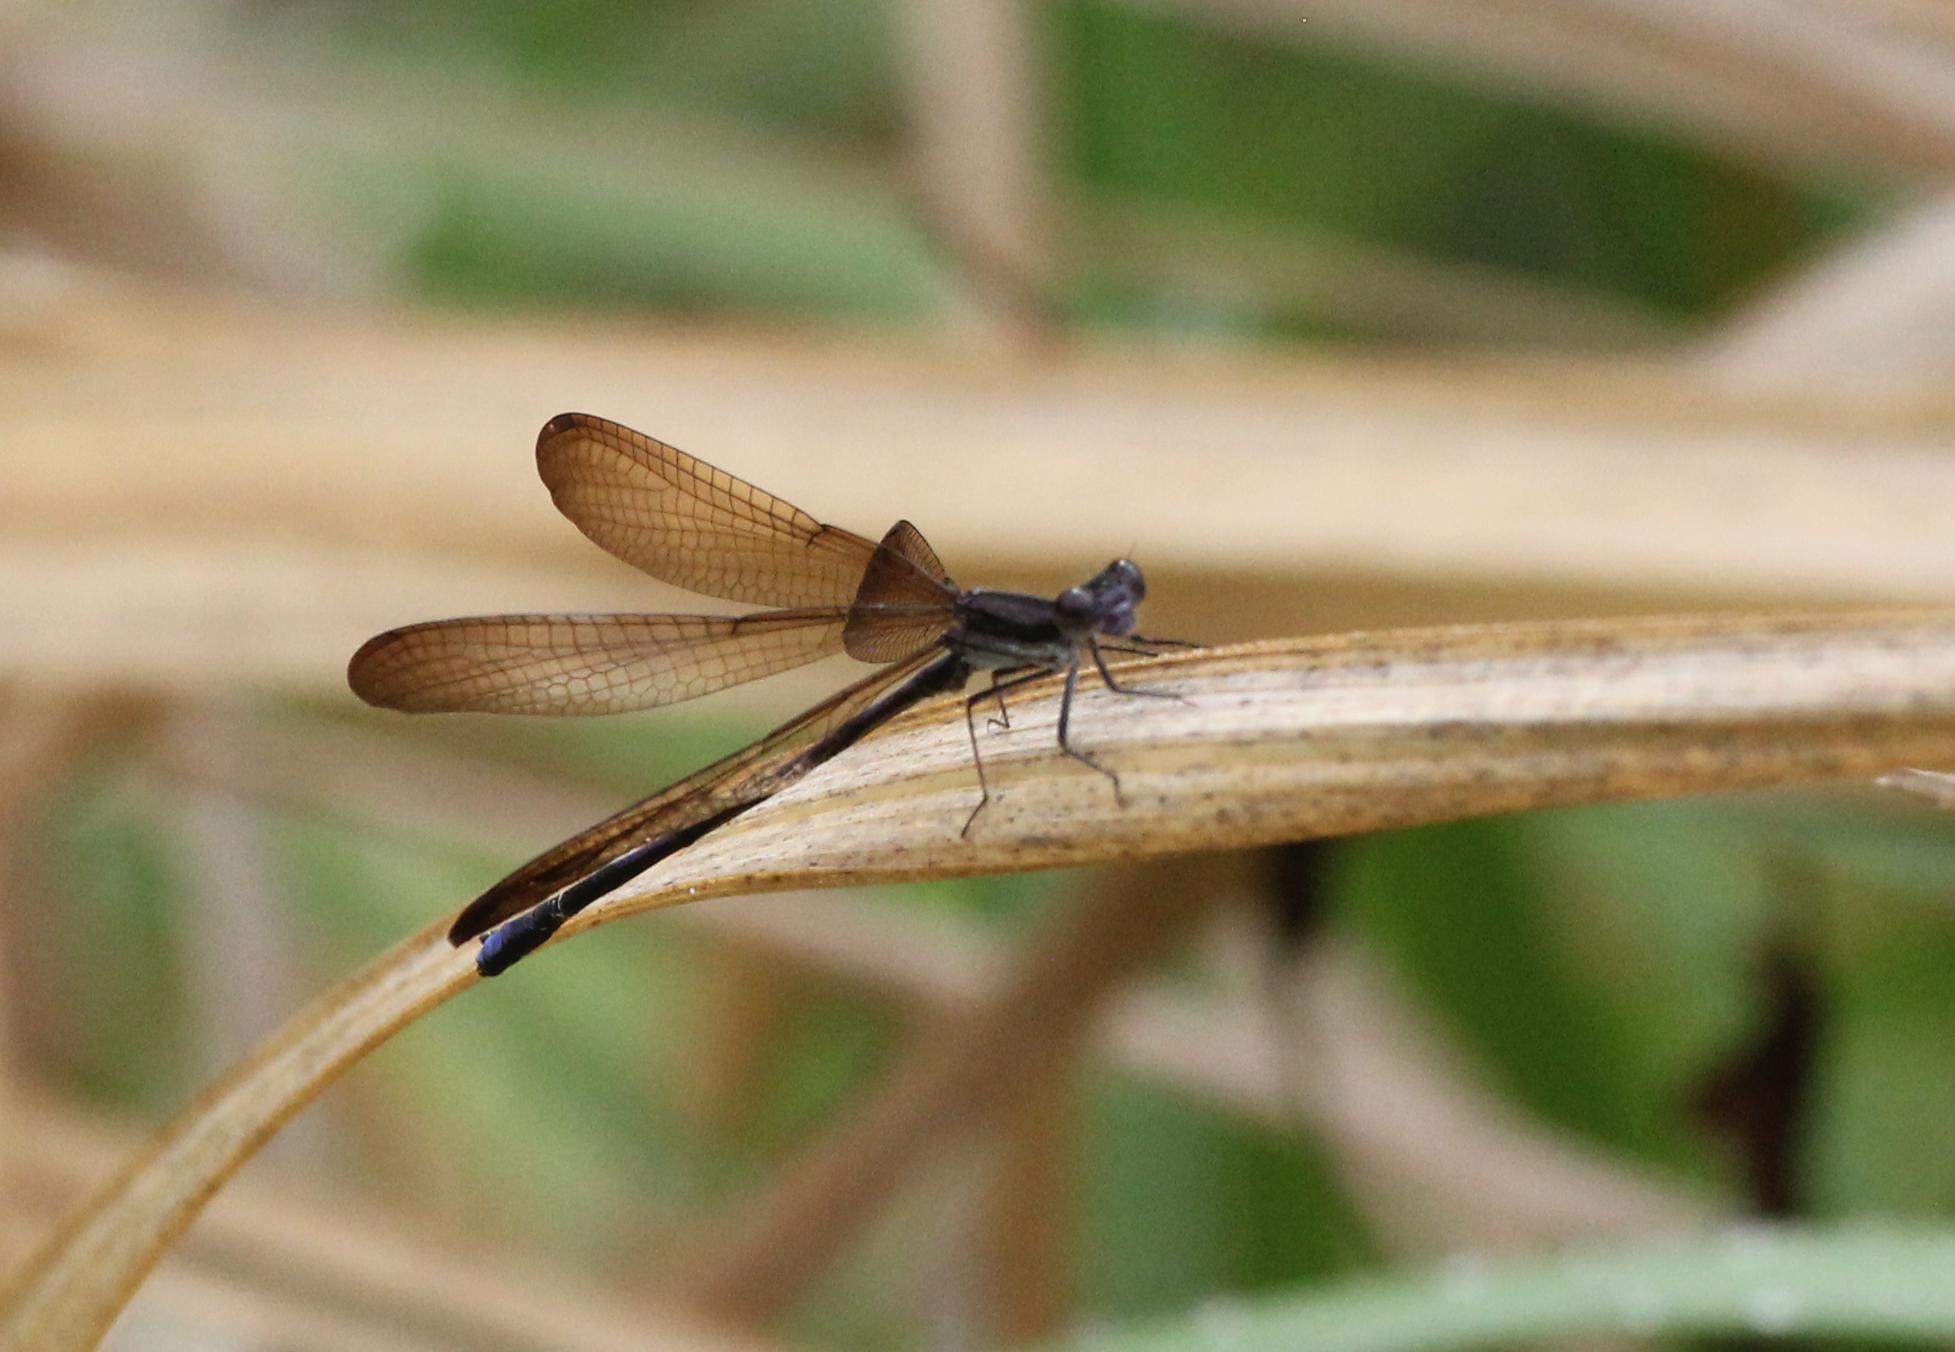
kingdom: Animalia
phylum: Arthropoda
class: Insecta
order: Odonata
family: Coenagrionidae
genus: Argia
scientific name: Argia fumipennis
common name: Variable dancer
